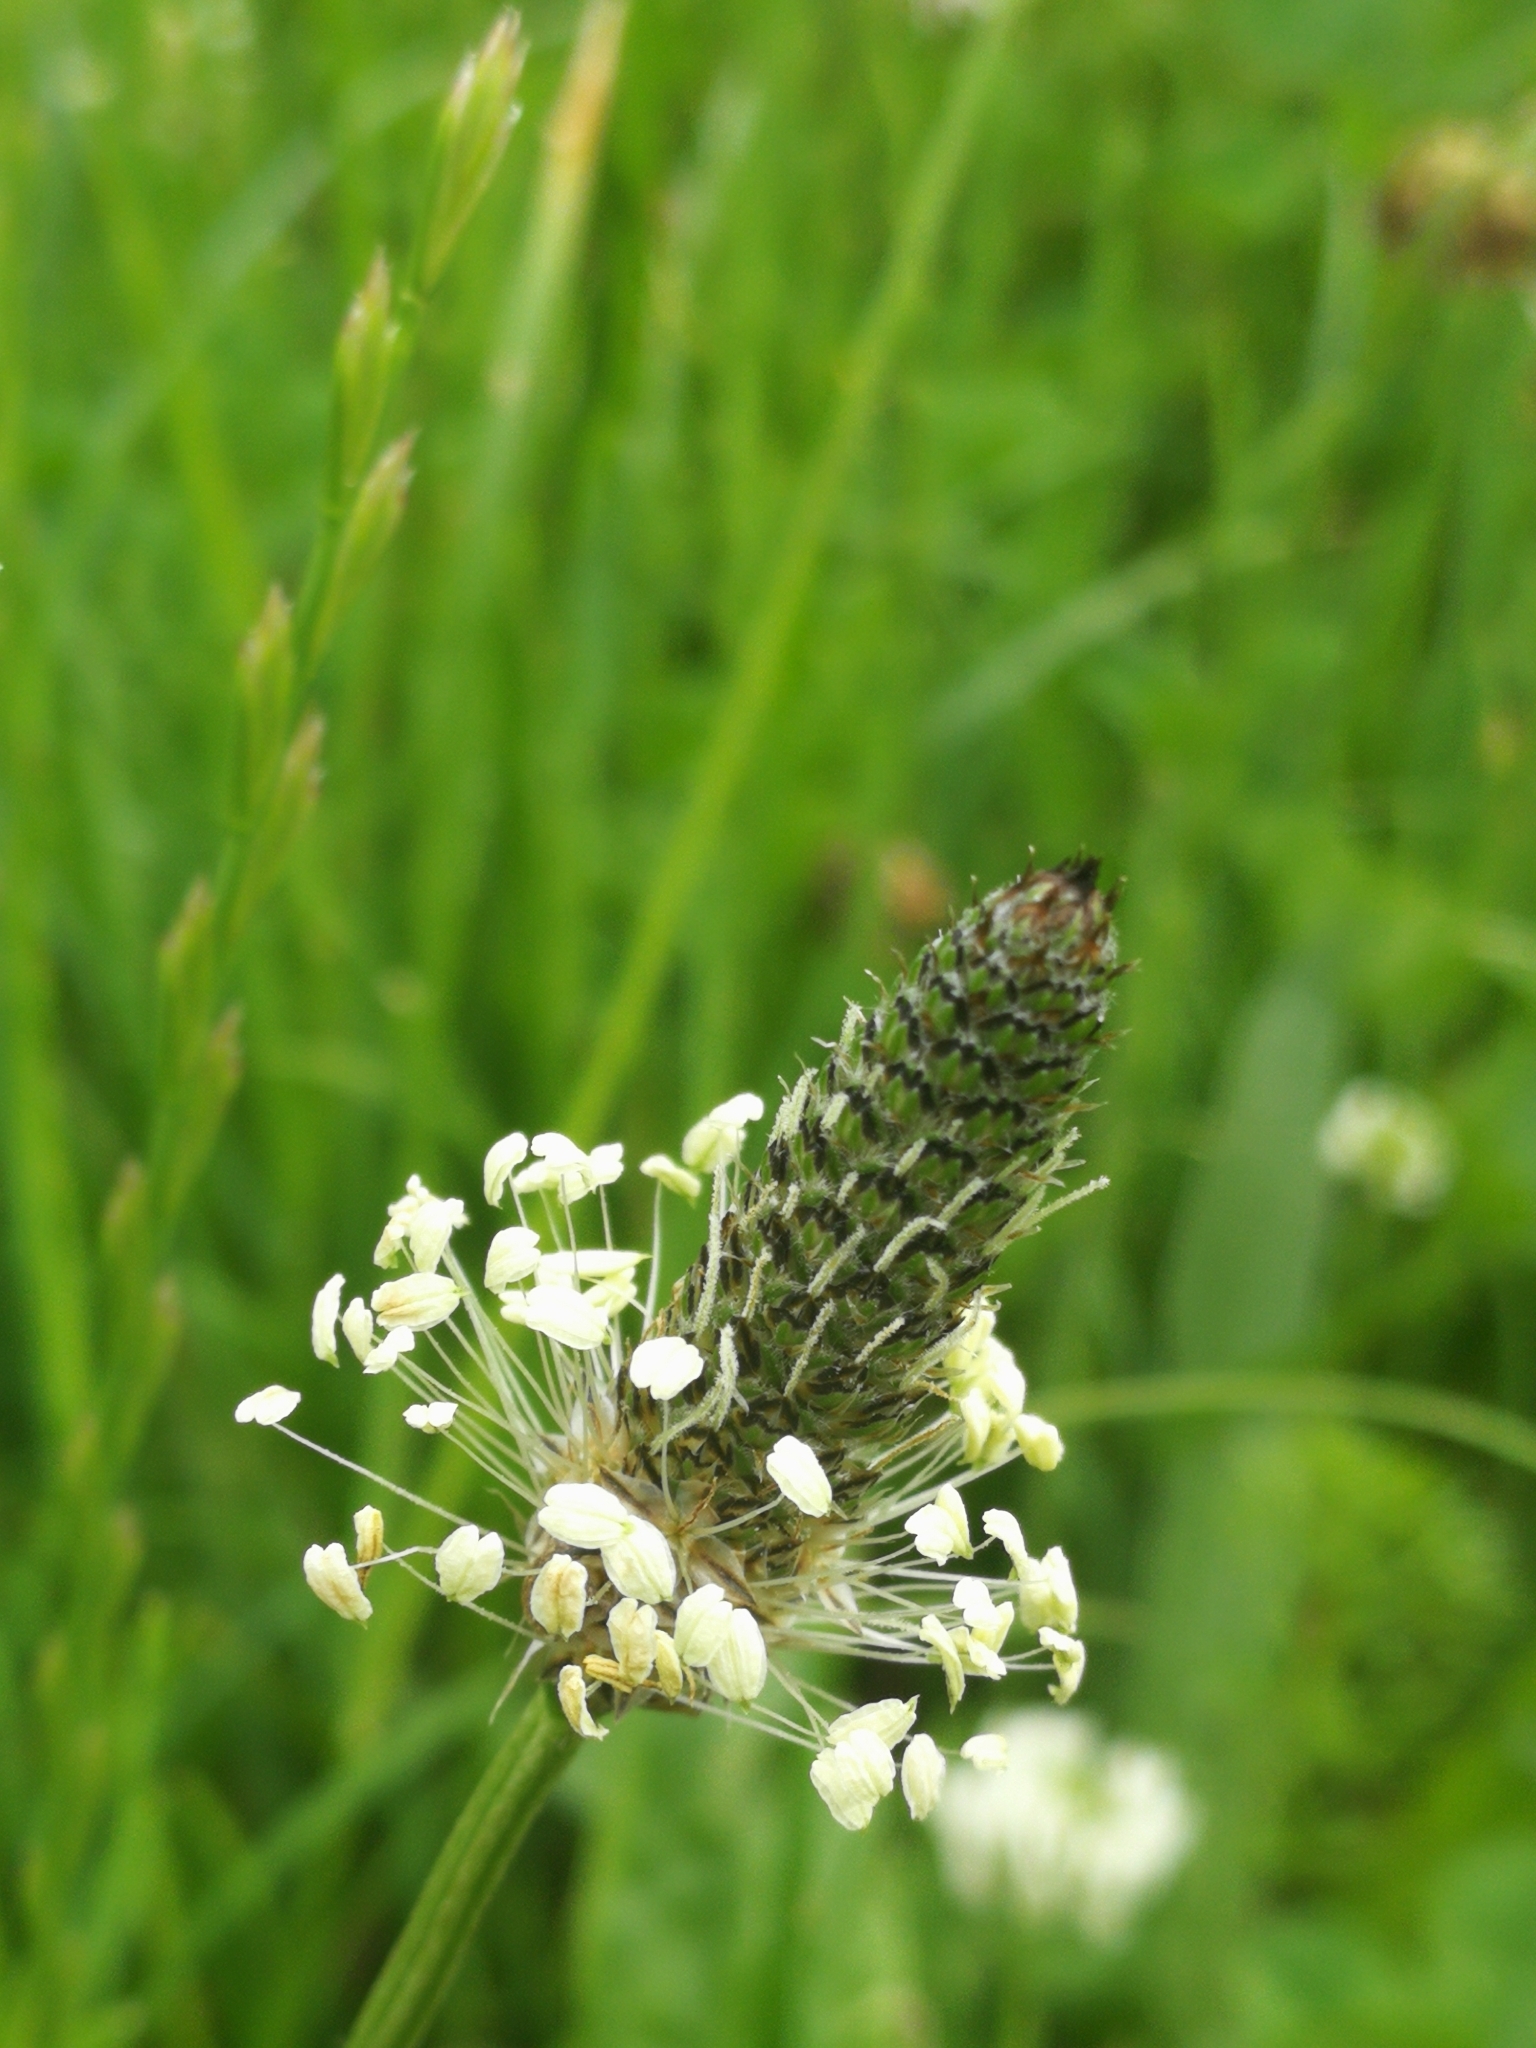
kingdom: Plantae
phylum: Tracheophyta
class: Magnoliopsida
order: Lamiales
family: Plantaginaceae
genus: Plantago
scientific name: Plantago lanceolata
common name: Ribwort plantain
